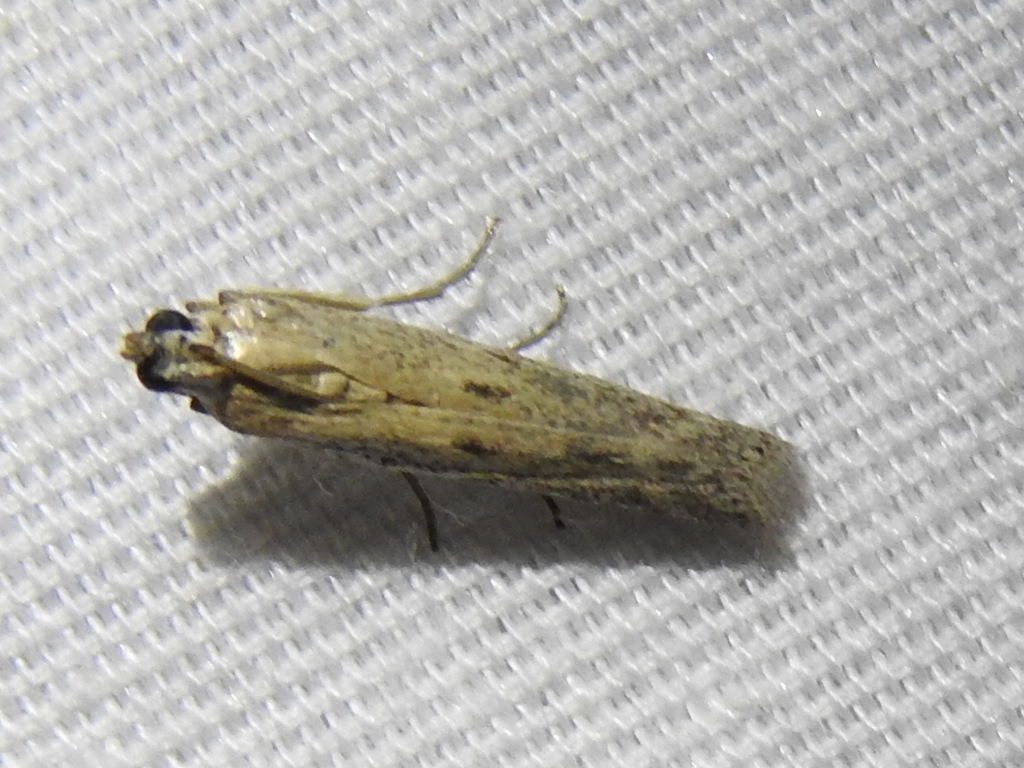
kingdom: Animalia
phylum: Arthropoda
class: Insecta
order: Lepidoptera
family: Pyralidae
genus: Homoeosoma
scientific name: Homoeosoma electella
